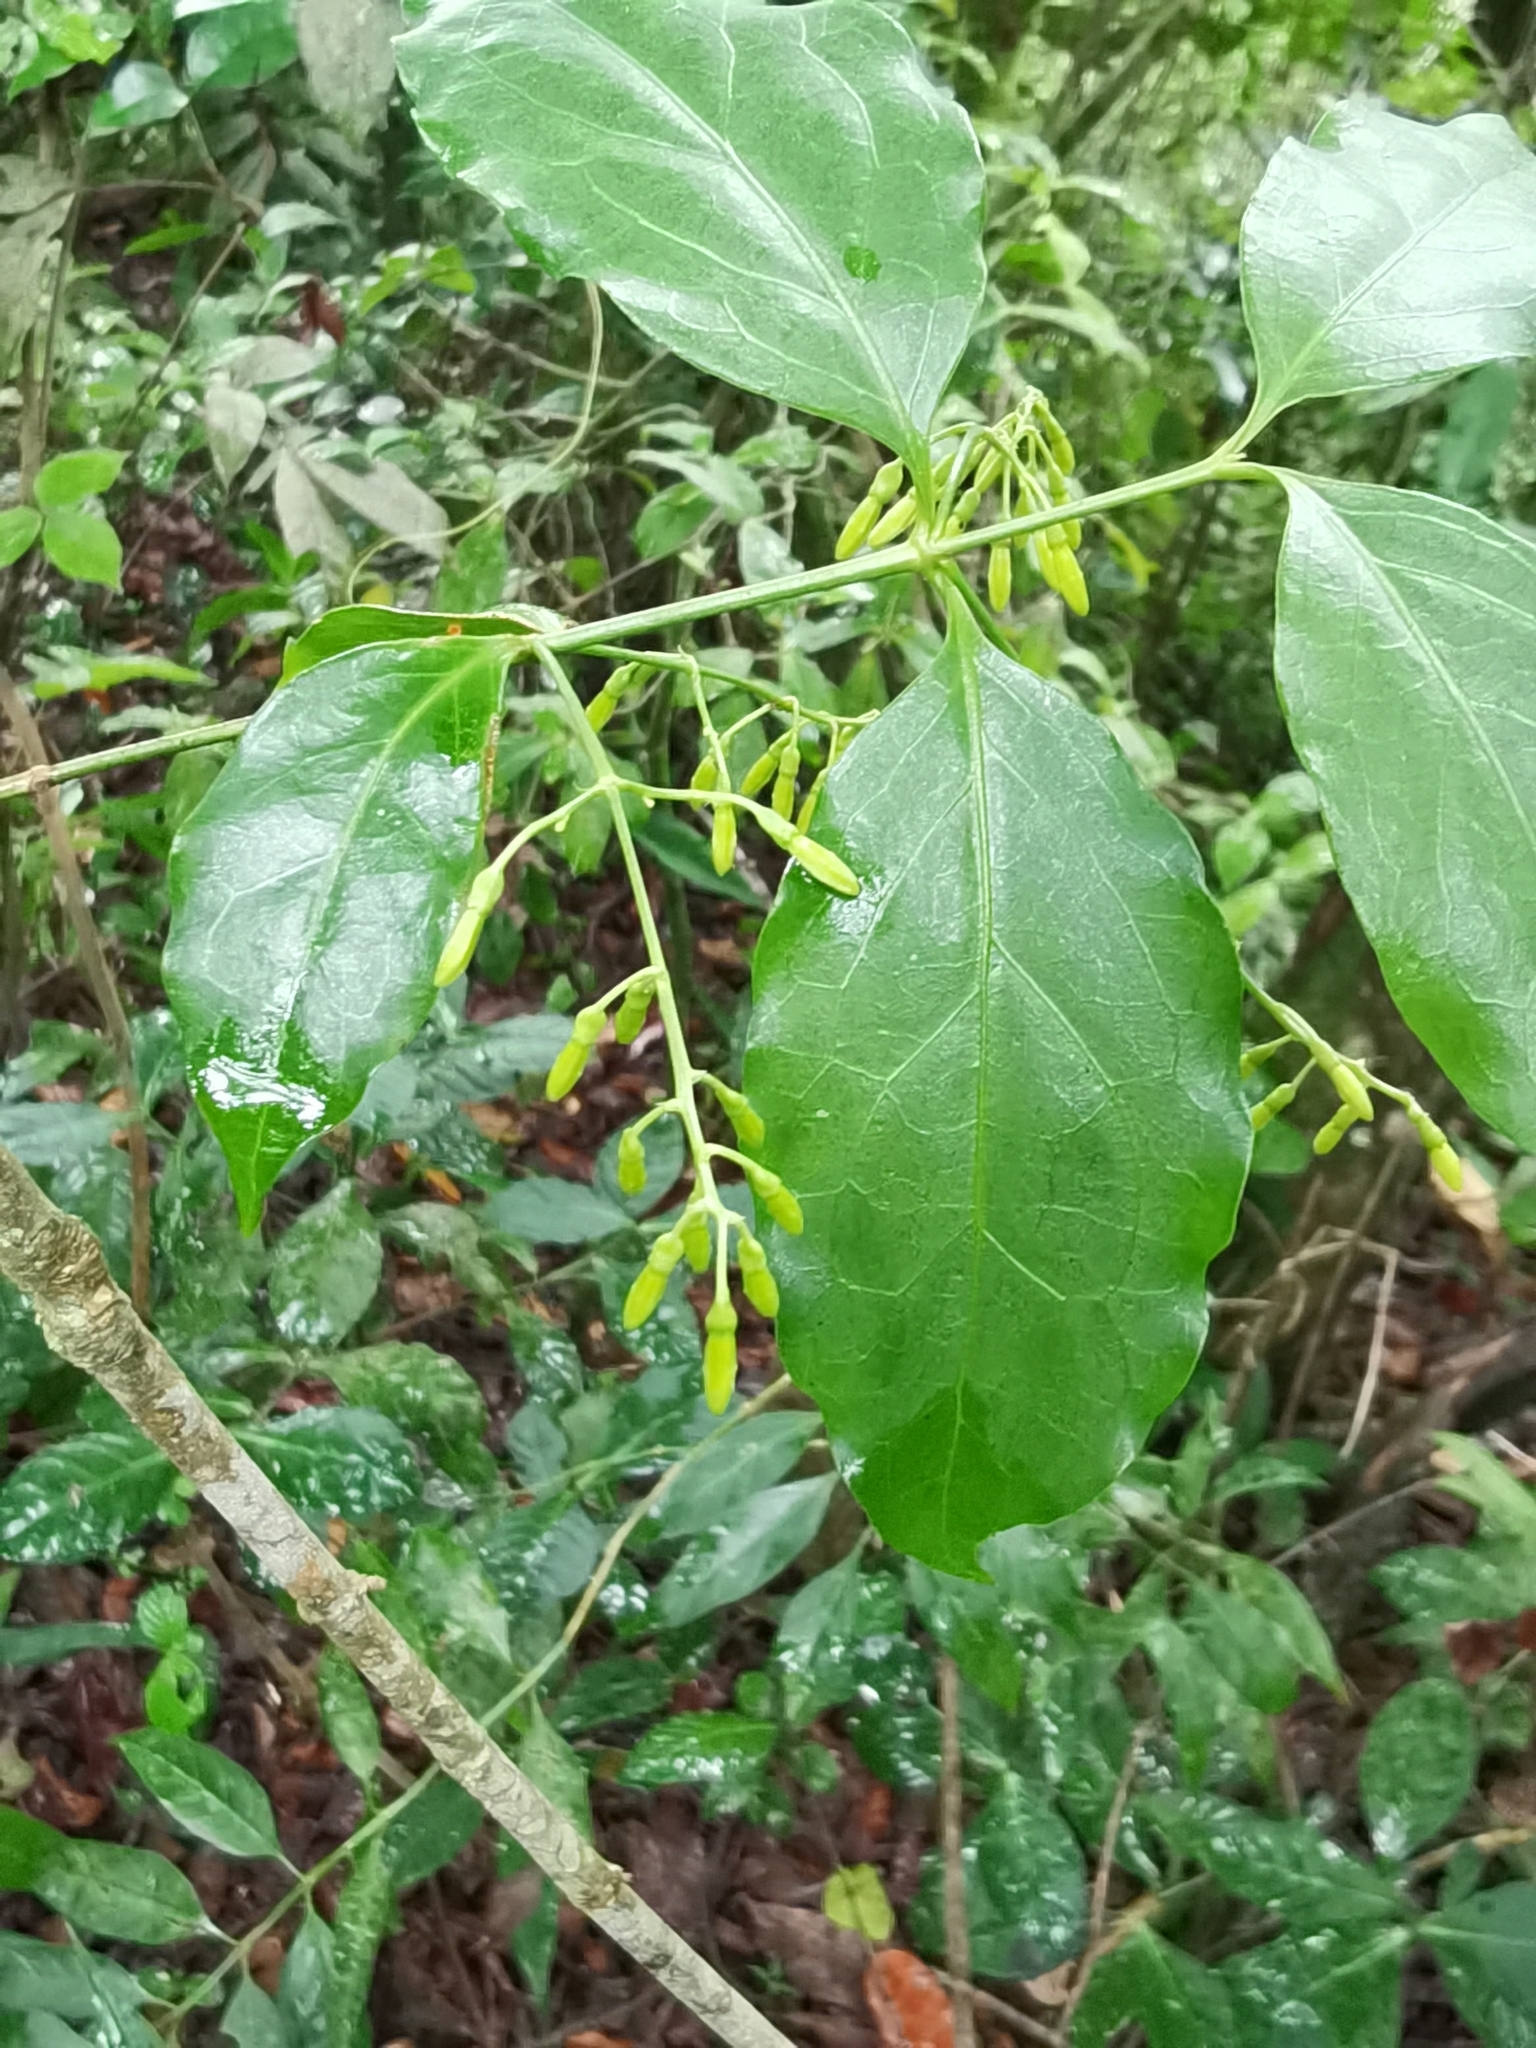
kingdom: Plantae
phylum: Tracheophyta
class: Magnoliopsida
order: Gentianales
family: Rubiaceae
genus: Chiococca
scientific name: Chiococca alba
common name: Snowberry
